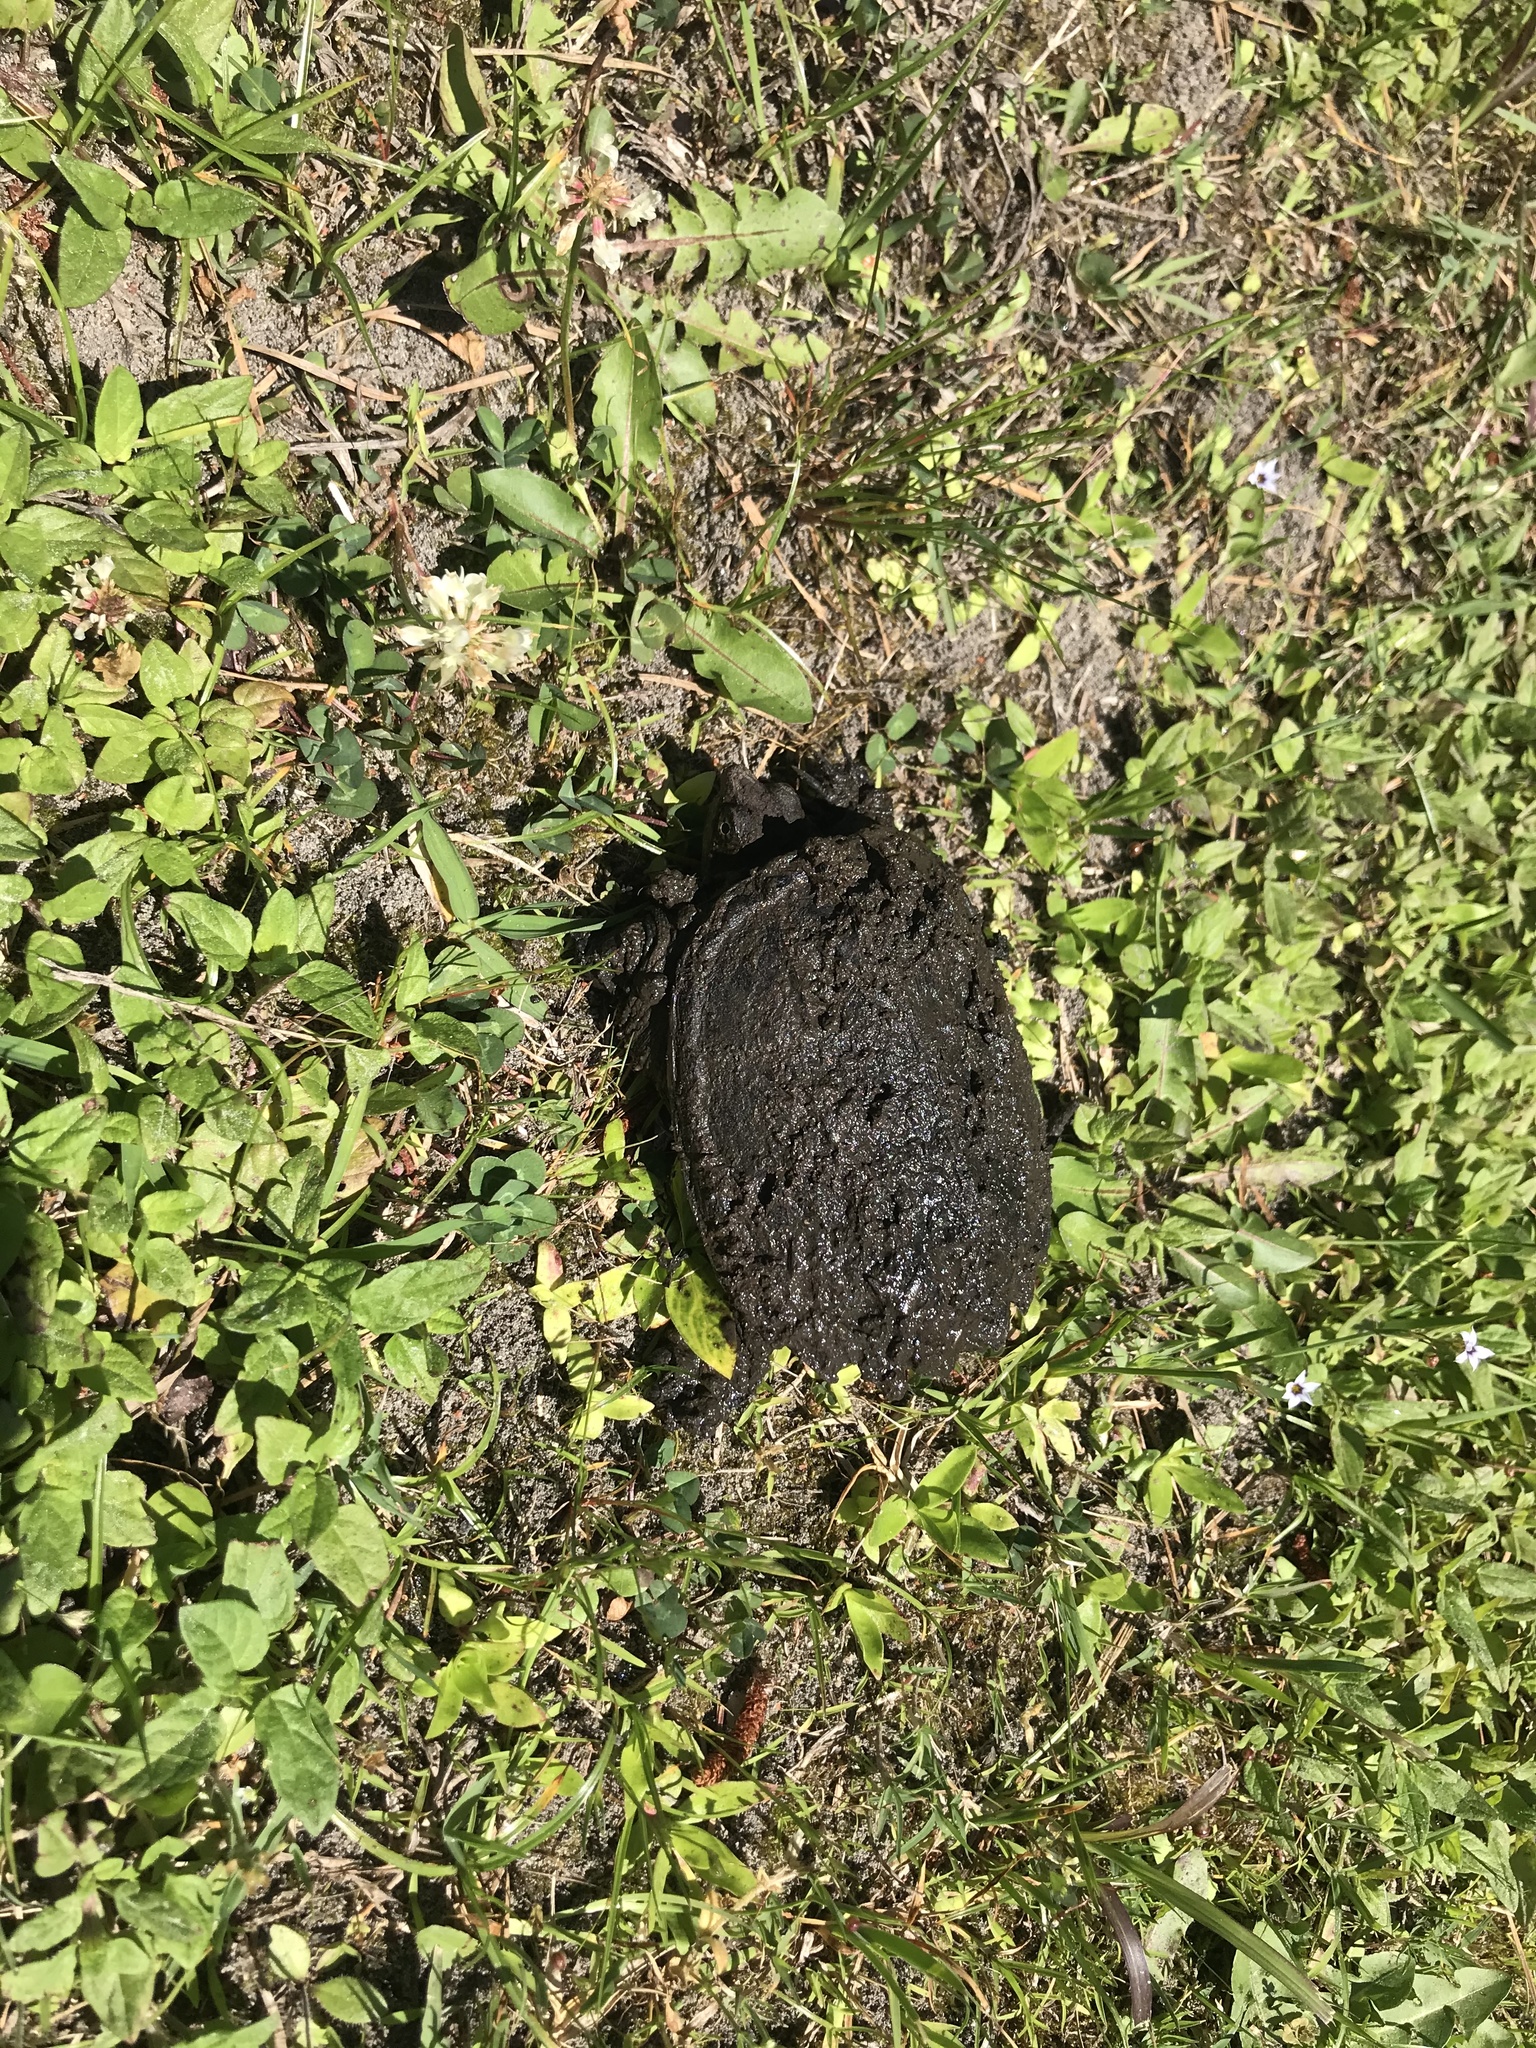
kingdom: Animalia
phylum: Chordata
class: Testudines
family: Chelydridae
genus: Chelydra
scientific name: Chelydra serpentina
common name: Common snapping turtle
